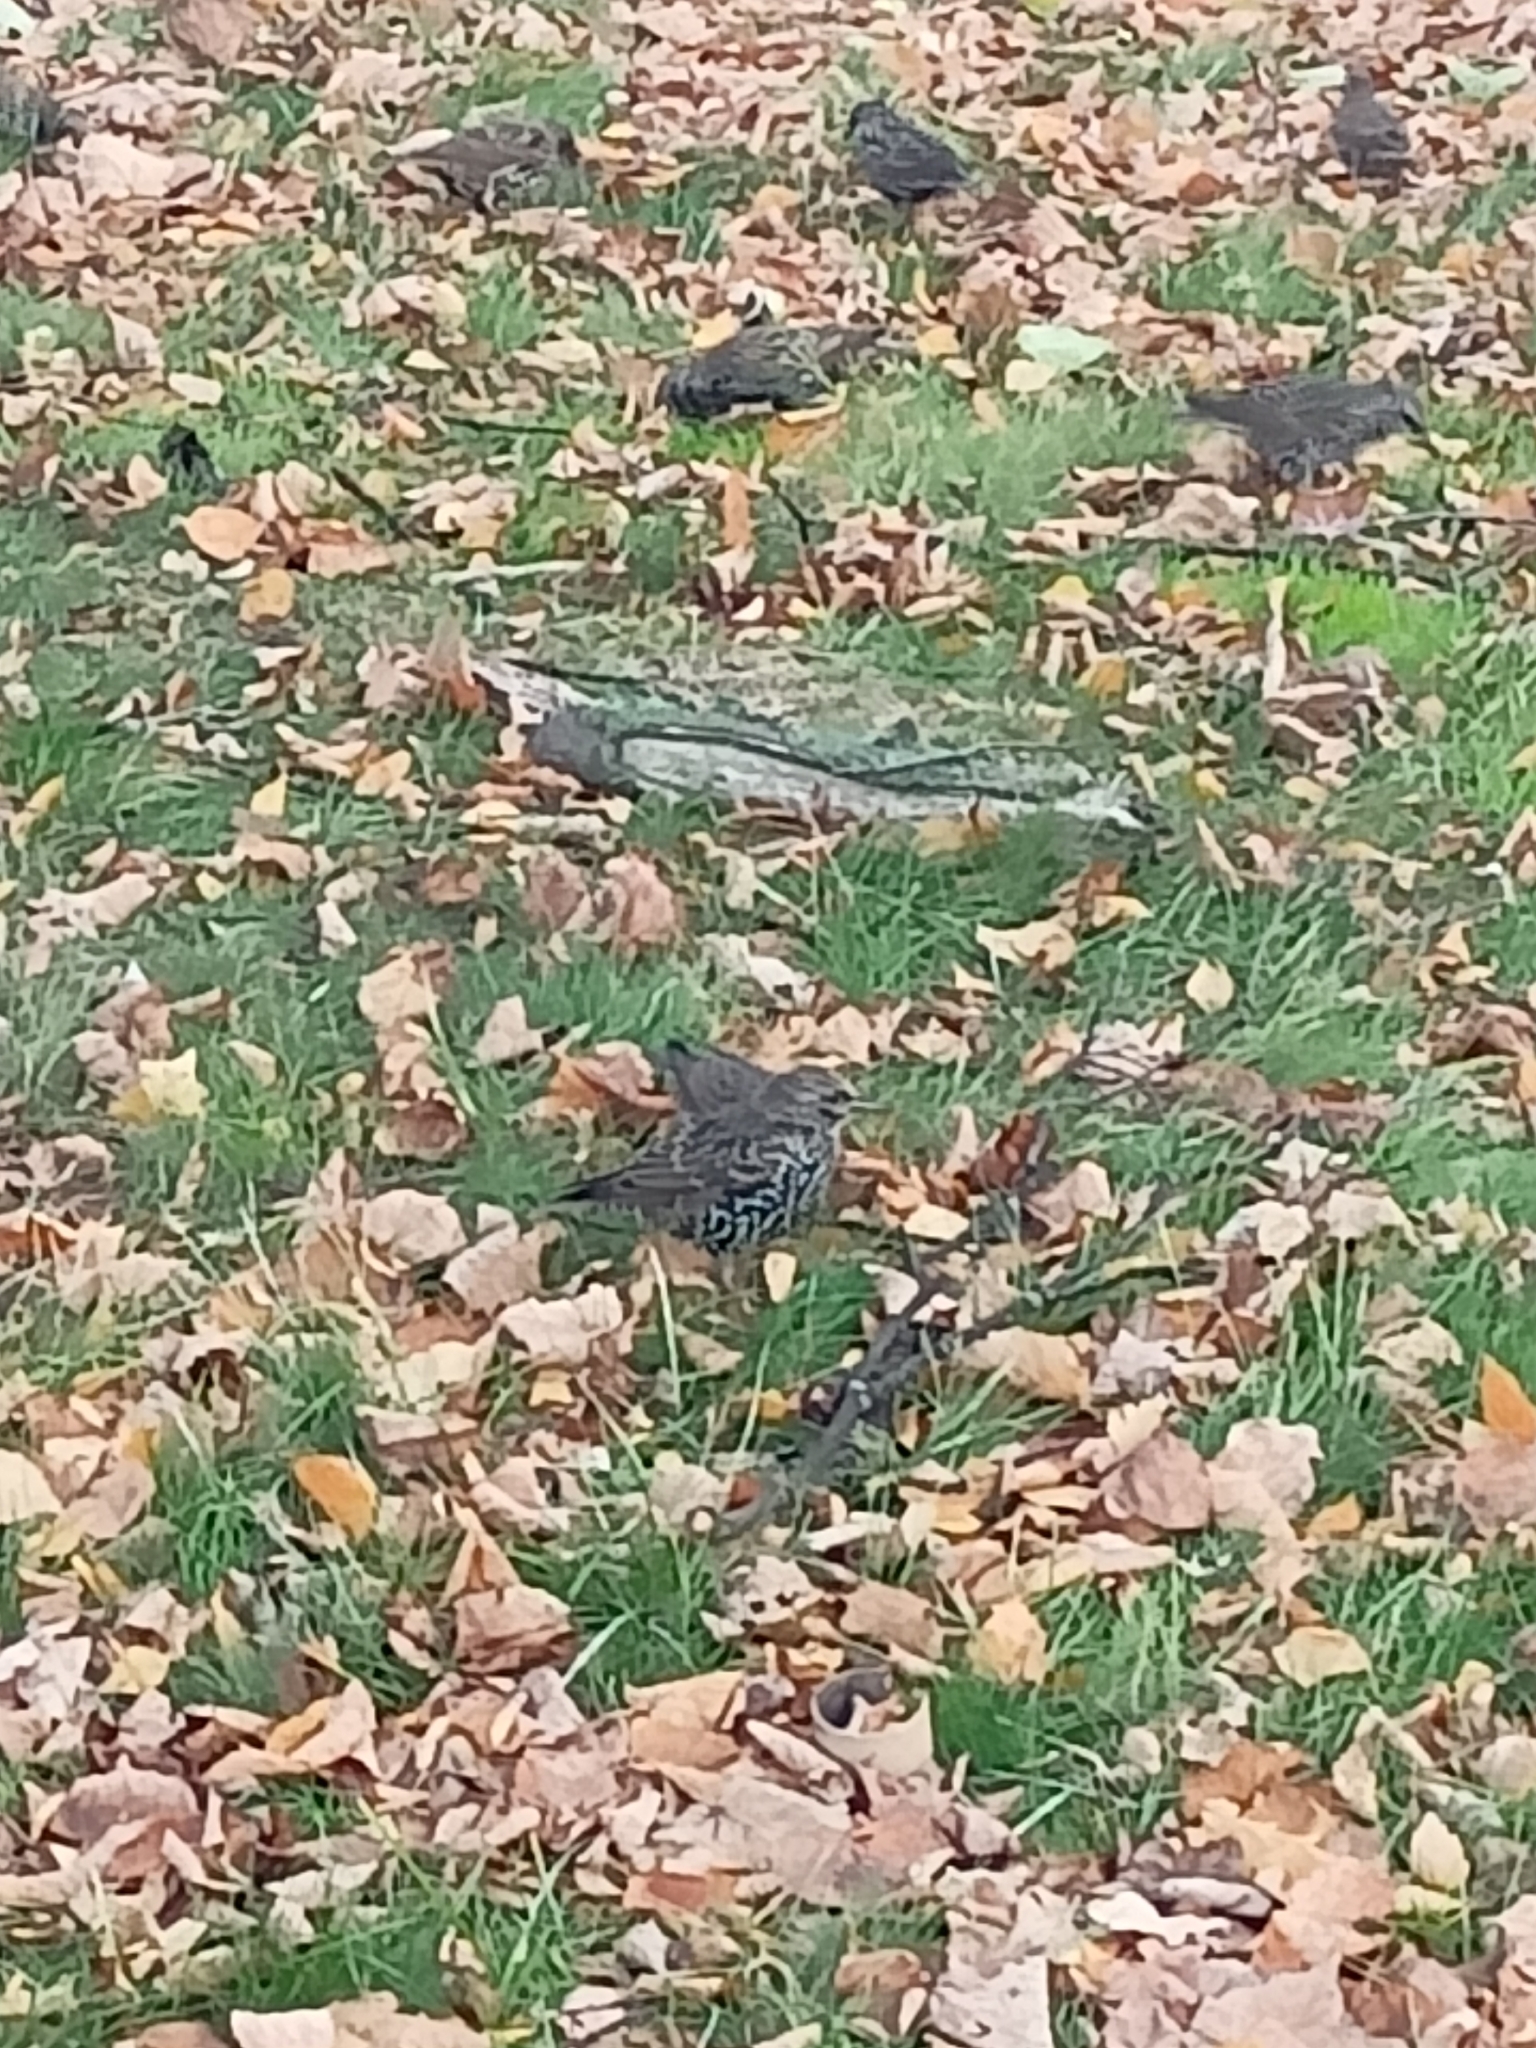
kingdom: Animalia
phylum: Chordata
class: Aves
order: Passeriformes
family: Sturnidae
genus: Sturnus
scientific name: Sturnus vulgaris
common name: Common starling
